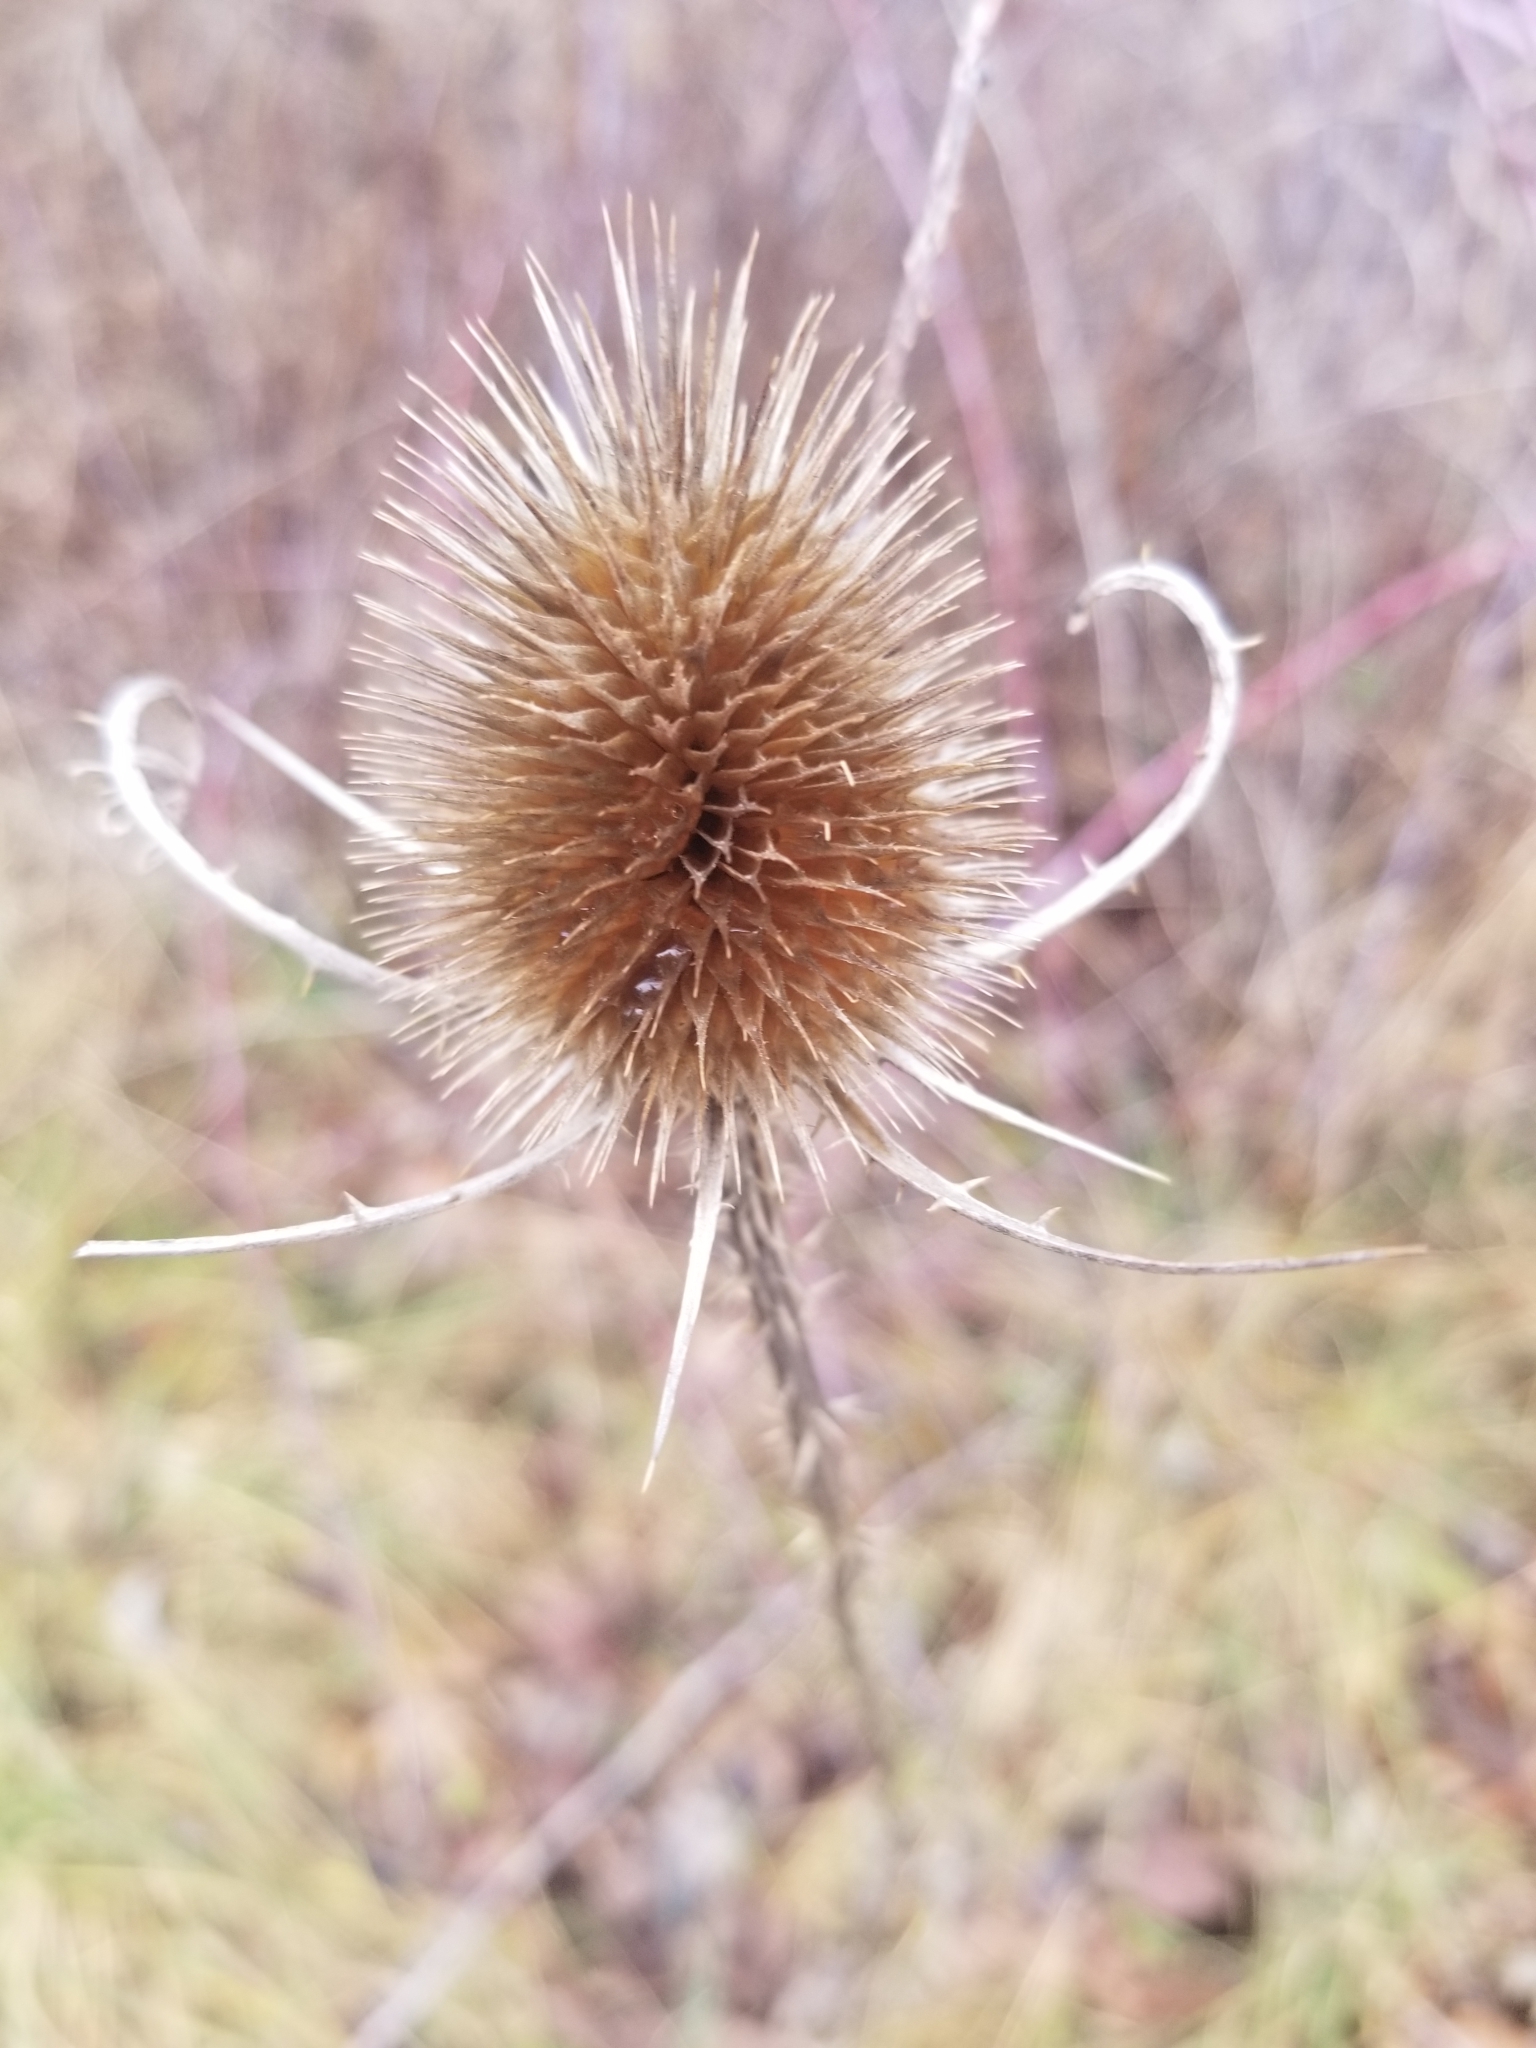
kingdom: Plantae
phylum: Tracheophyta
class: Magnoliopsida
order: Dipsacales
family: Caprifoliaceae
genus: Dipsacus
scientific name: Dipsacus fullonum
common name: Teasel
